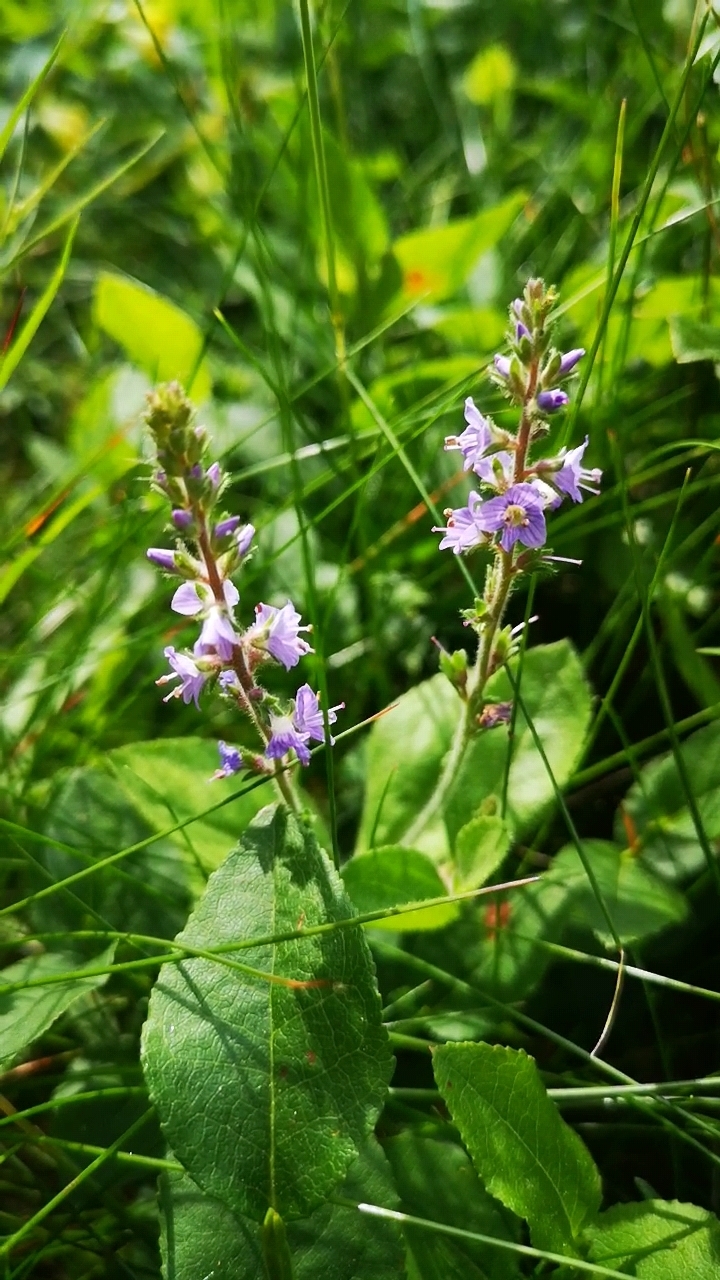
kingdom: Plantae
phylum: Tracheophyta
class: Magnoliopsida
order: Lamiales
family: Plantaginaceae
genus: Veronica
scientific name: Veronica officinalis
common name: Common speedwell
